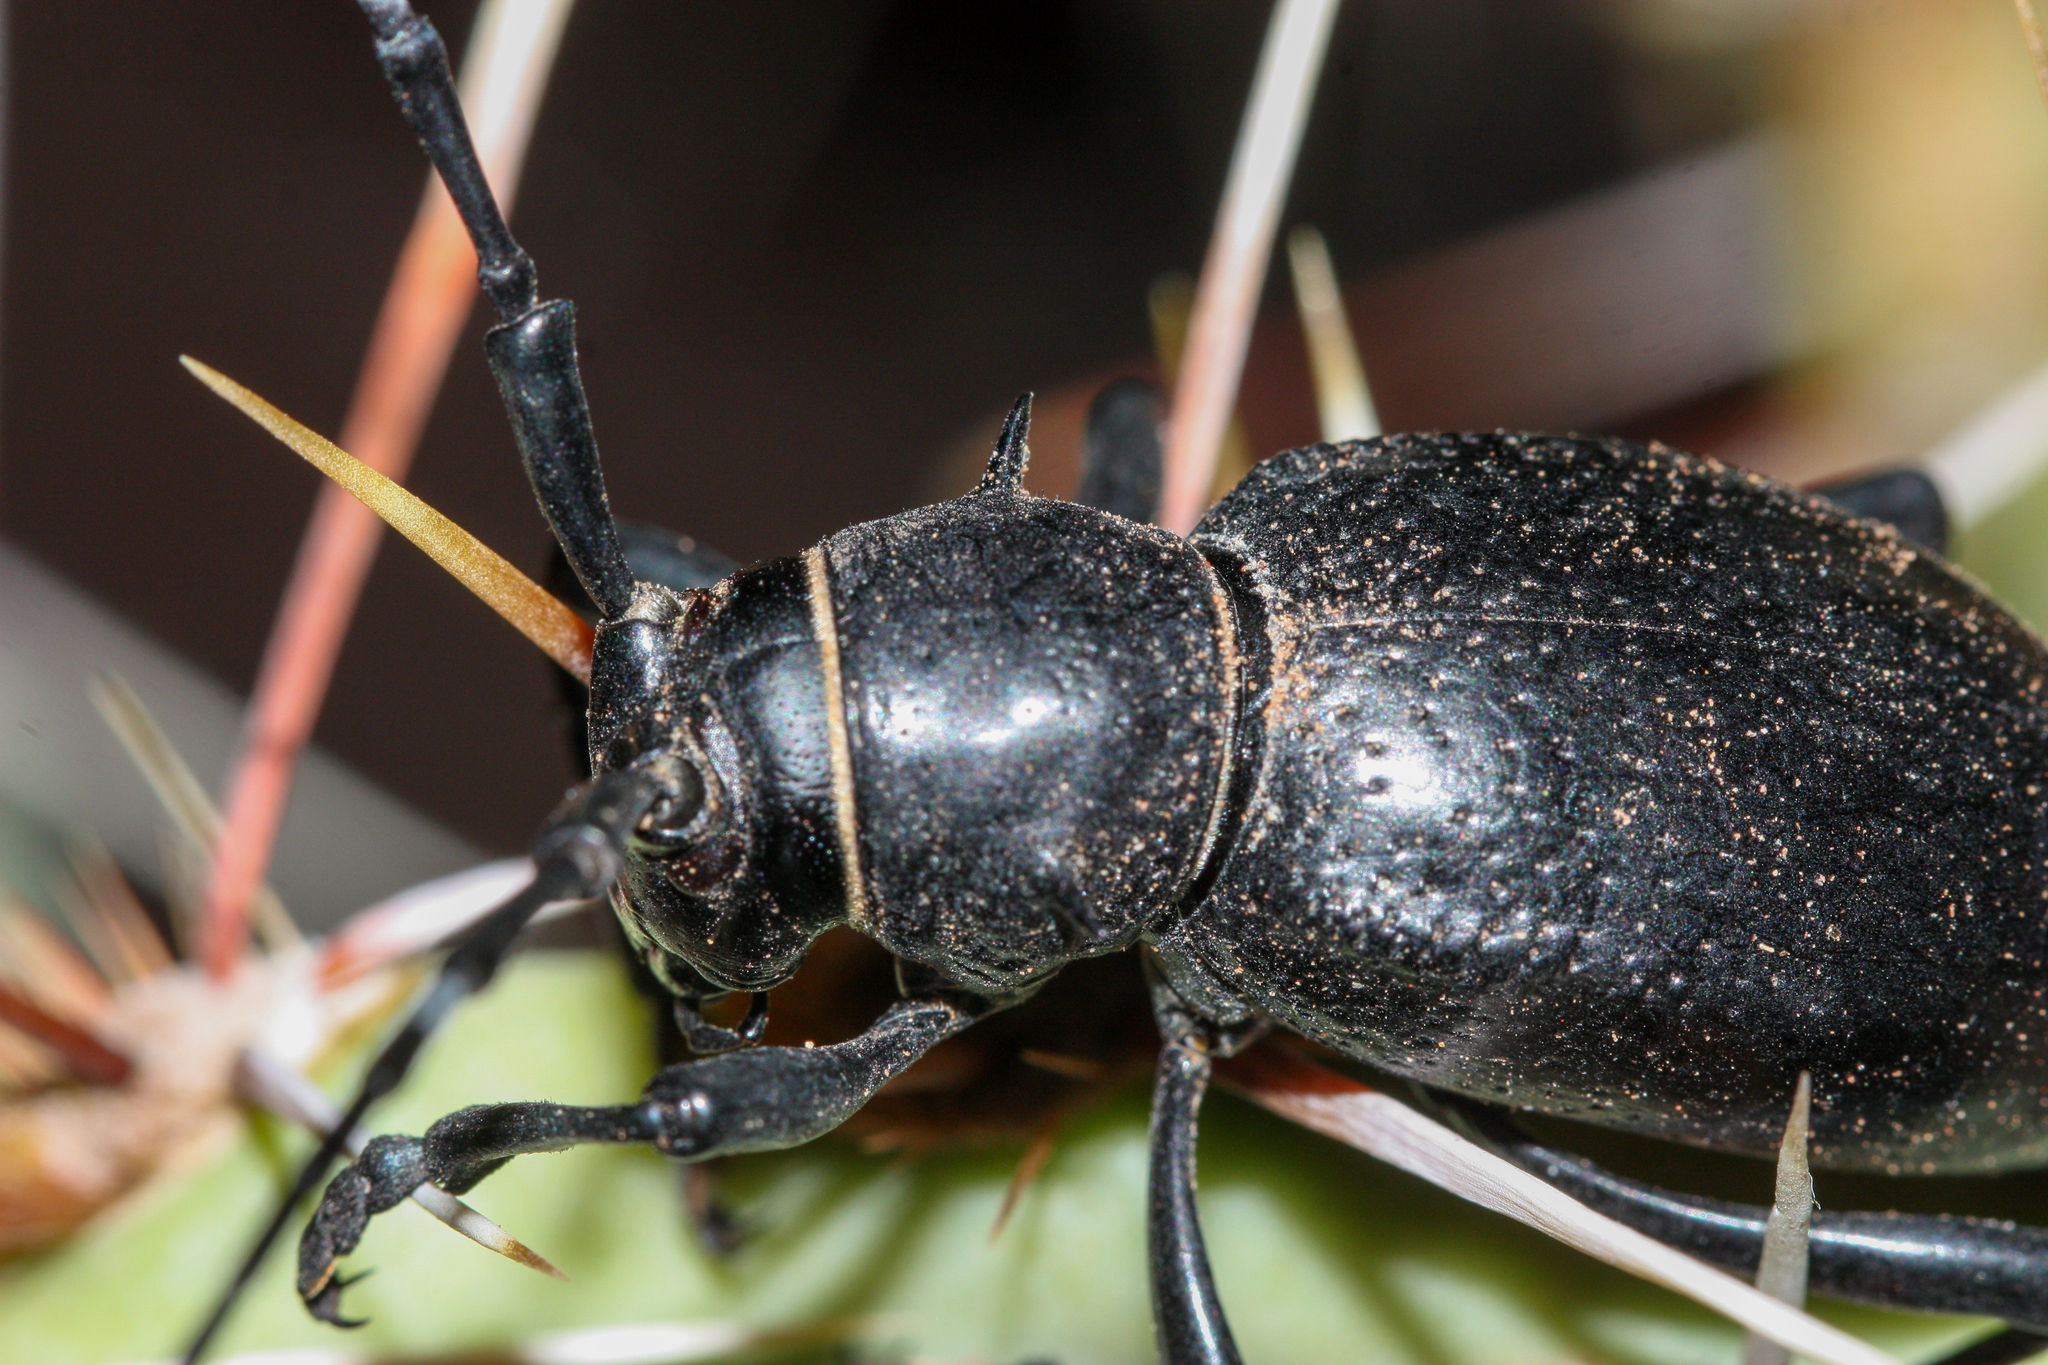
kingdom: Animalia
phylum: Arthropoda
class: Insecta
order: Coleoptera
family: Cerambycidae
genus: Moneilema
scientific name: Moneilema gigas
